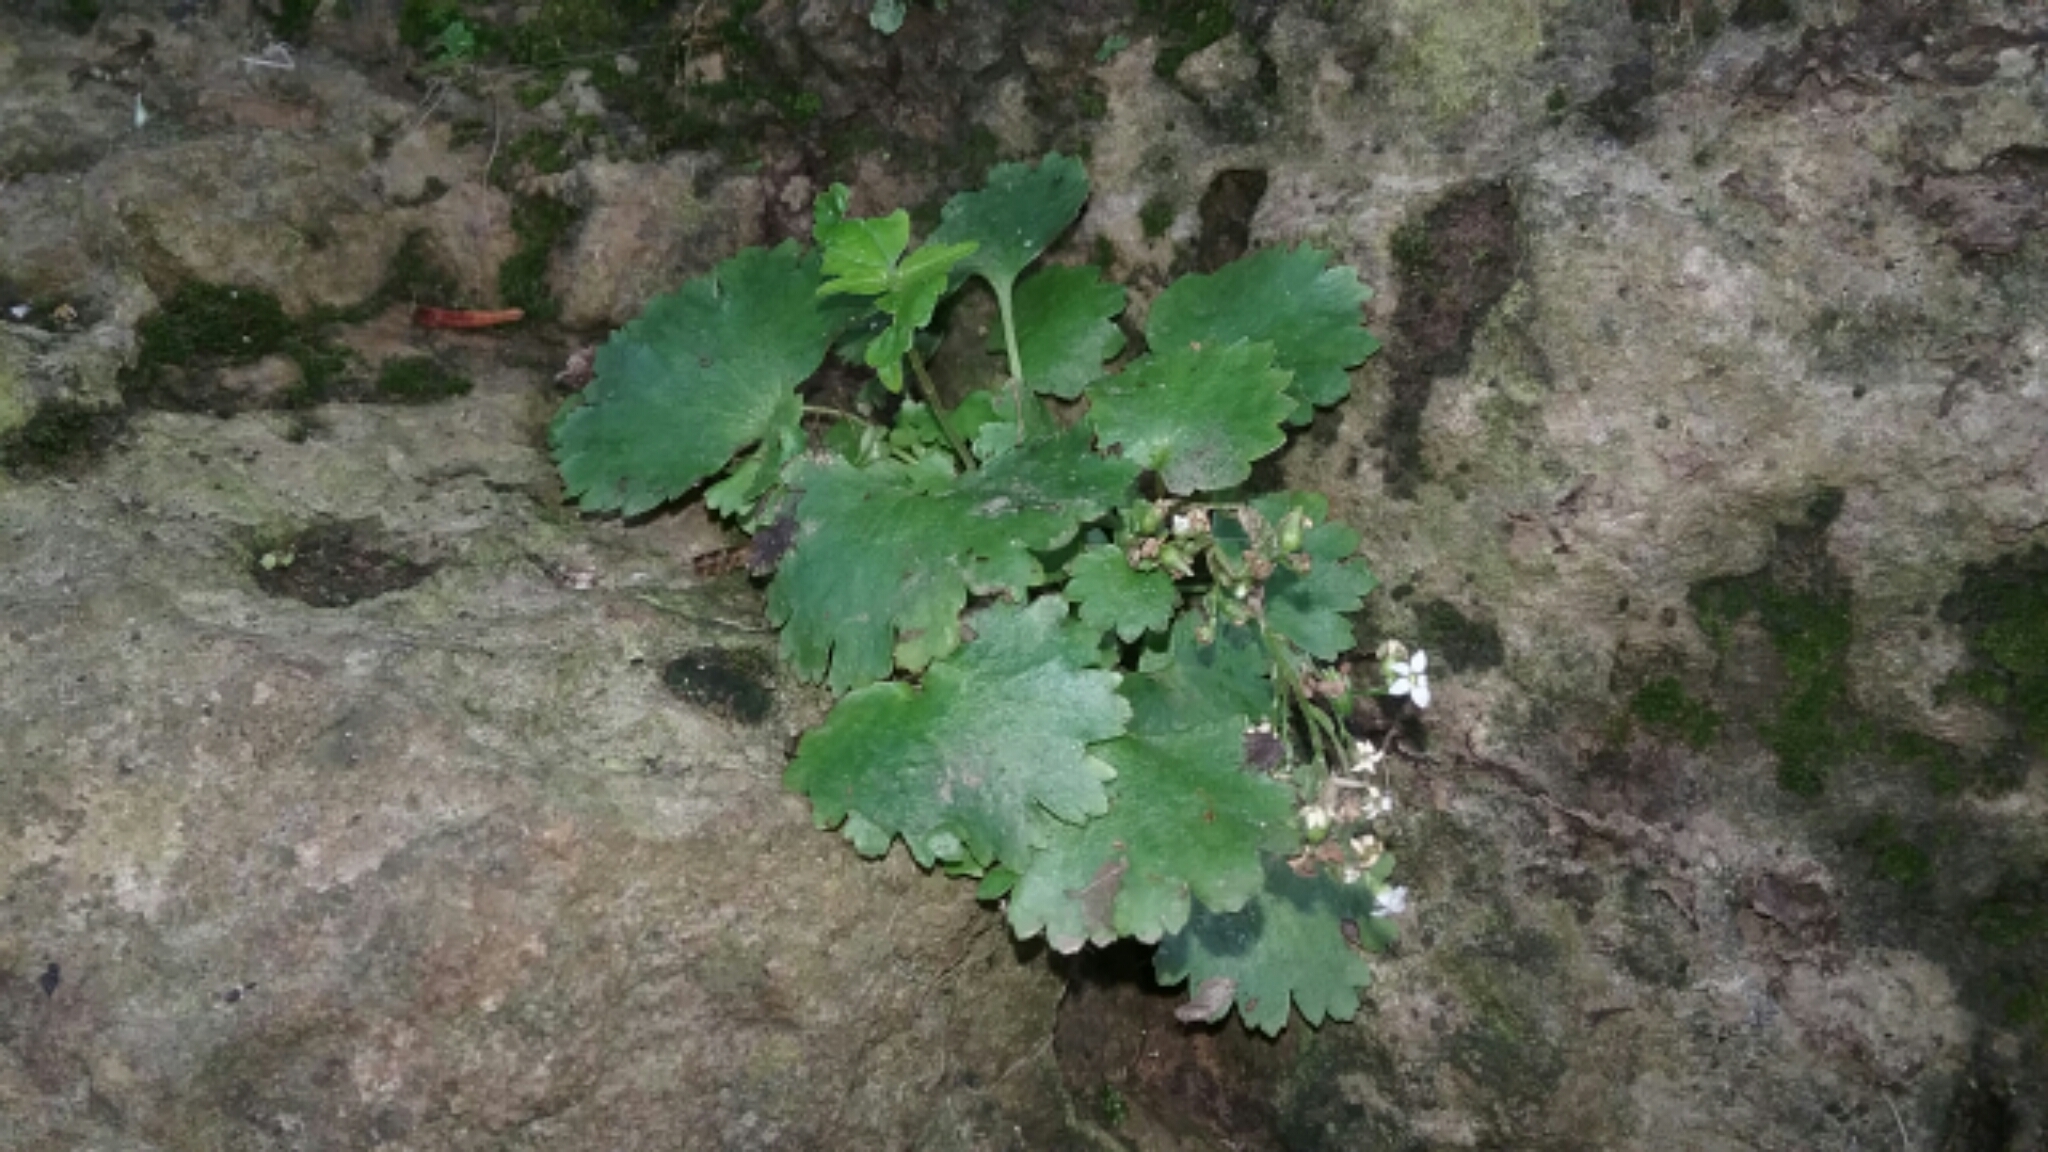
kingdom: Plantae
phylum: Tracheophyta
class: Magnoliopsida
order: Saxifragales
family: Saxifragaceae
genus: Sullivantia
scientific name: Sullivantia sullivantii
